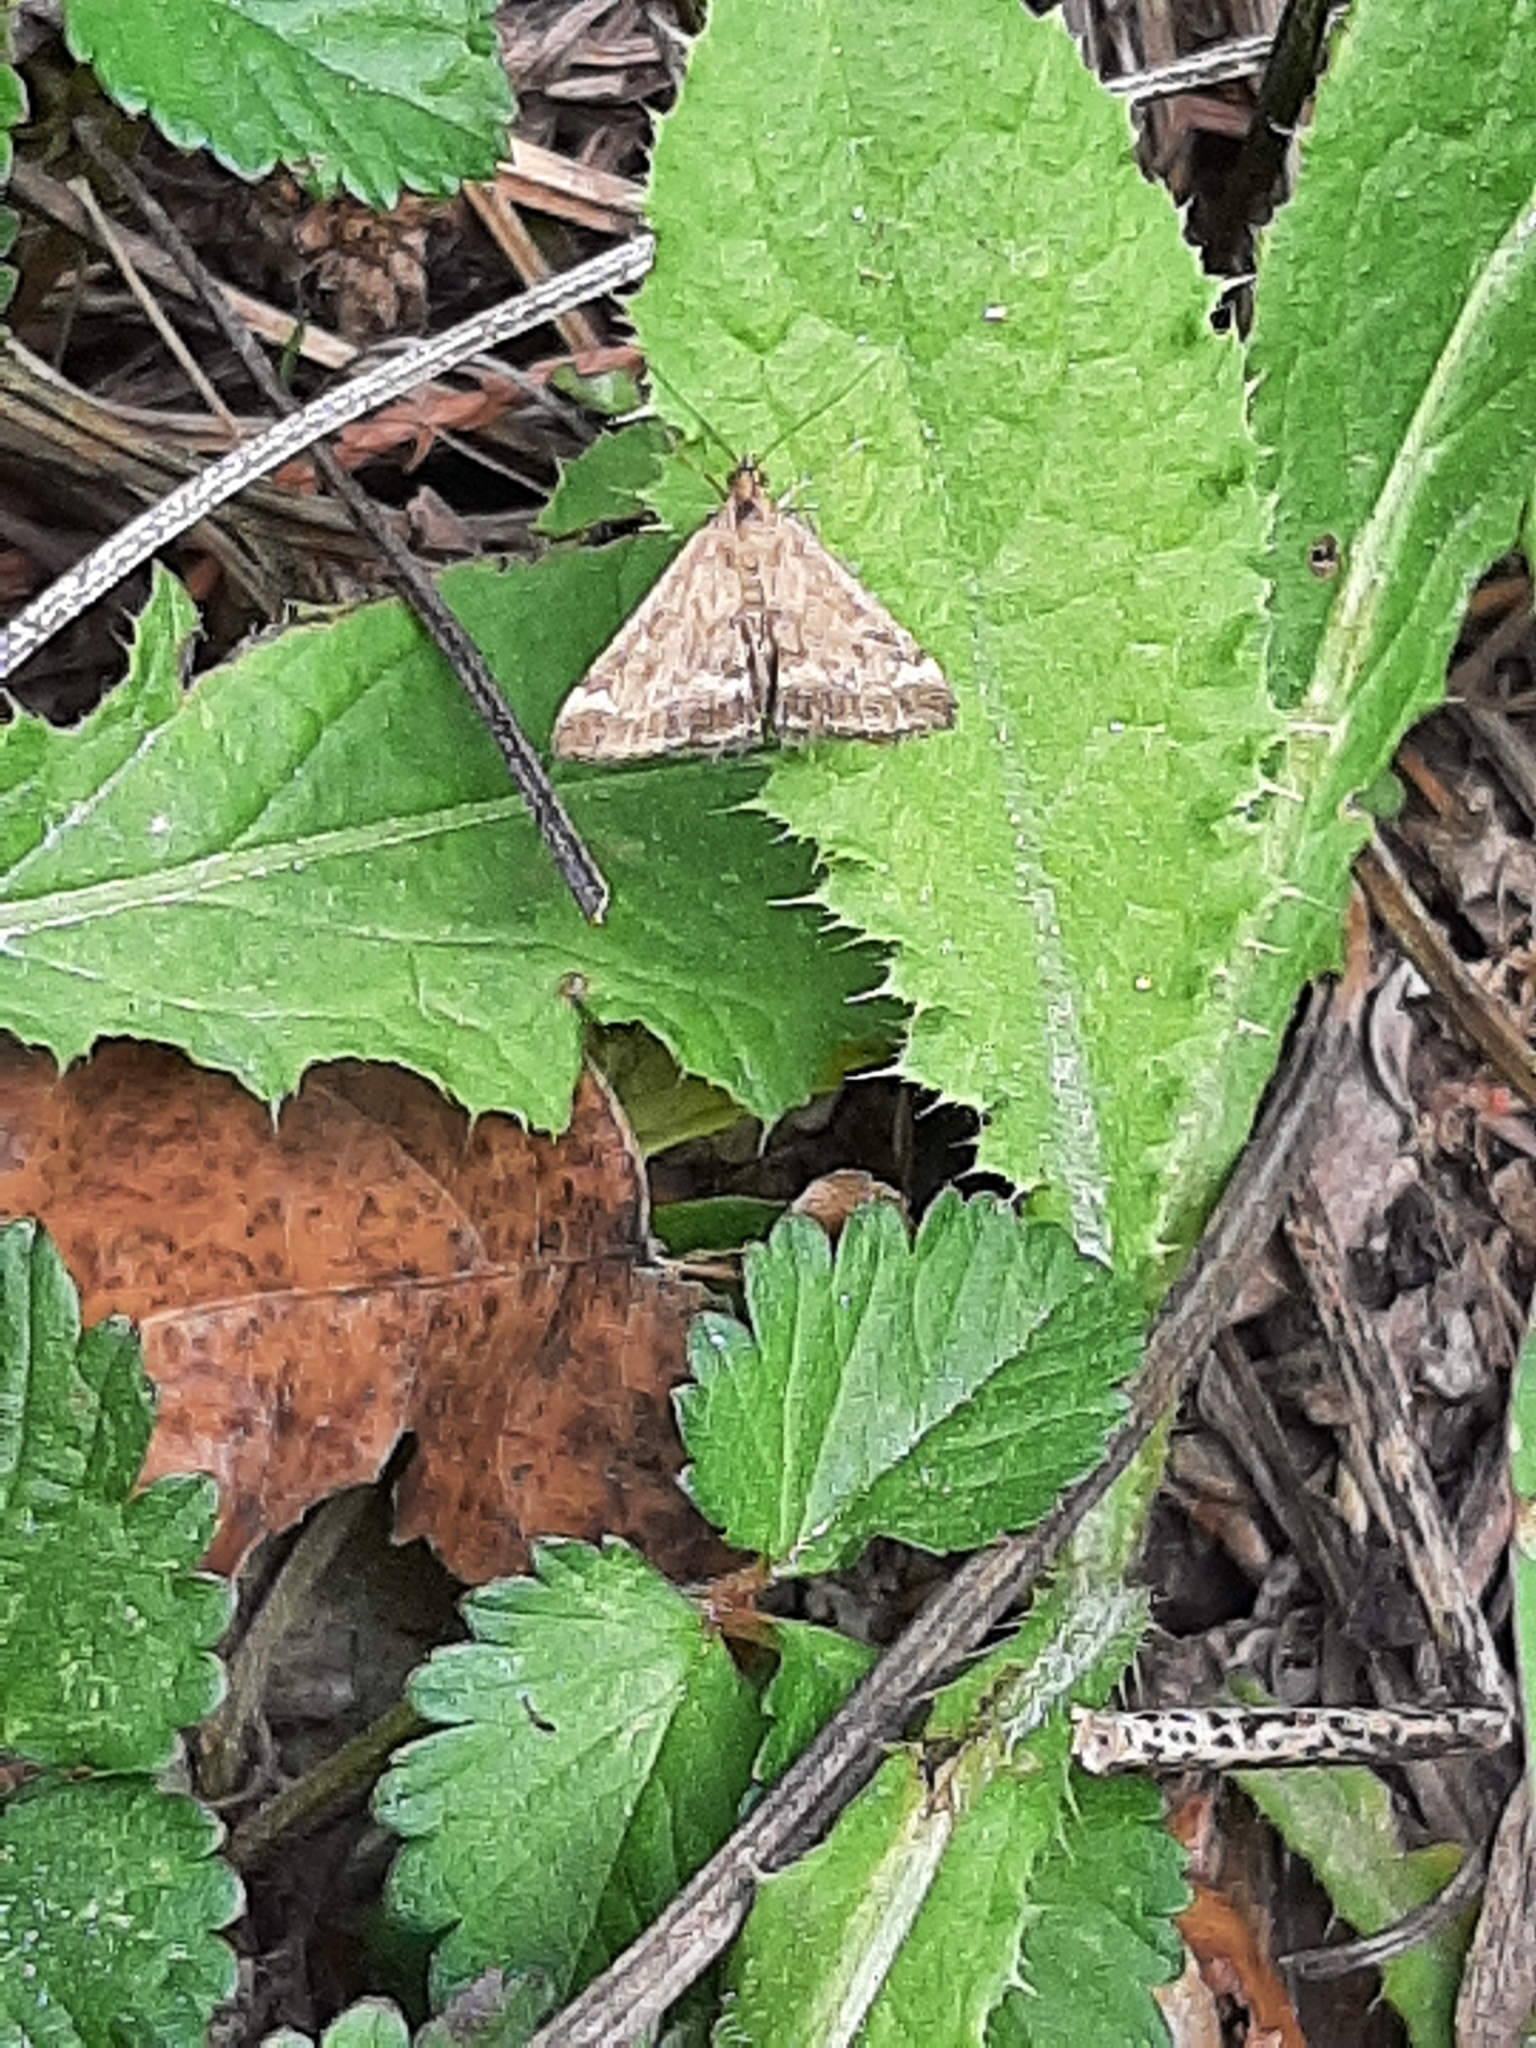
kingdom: Animalia
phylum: Arthropoda
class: Insecta
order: Lepidoptera
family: Crambidae
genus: Pyrausta
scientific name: Pyrausta despicata
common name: Straw-barred pearl
